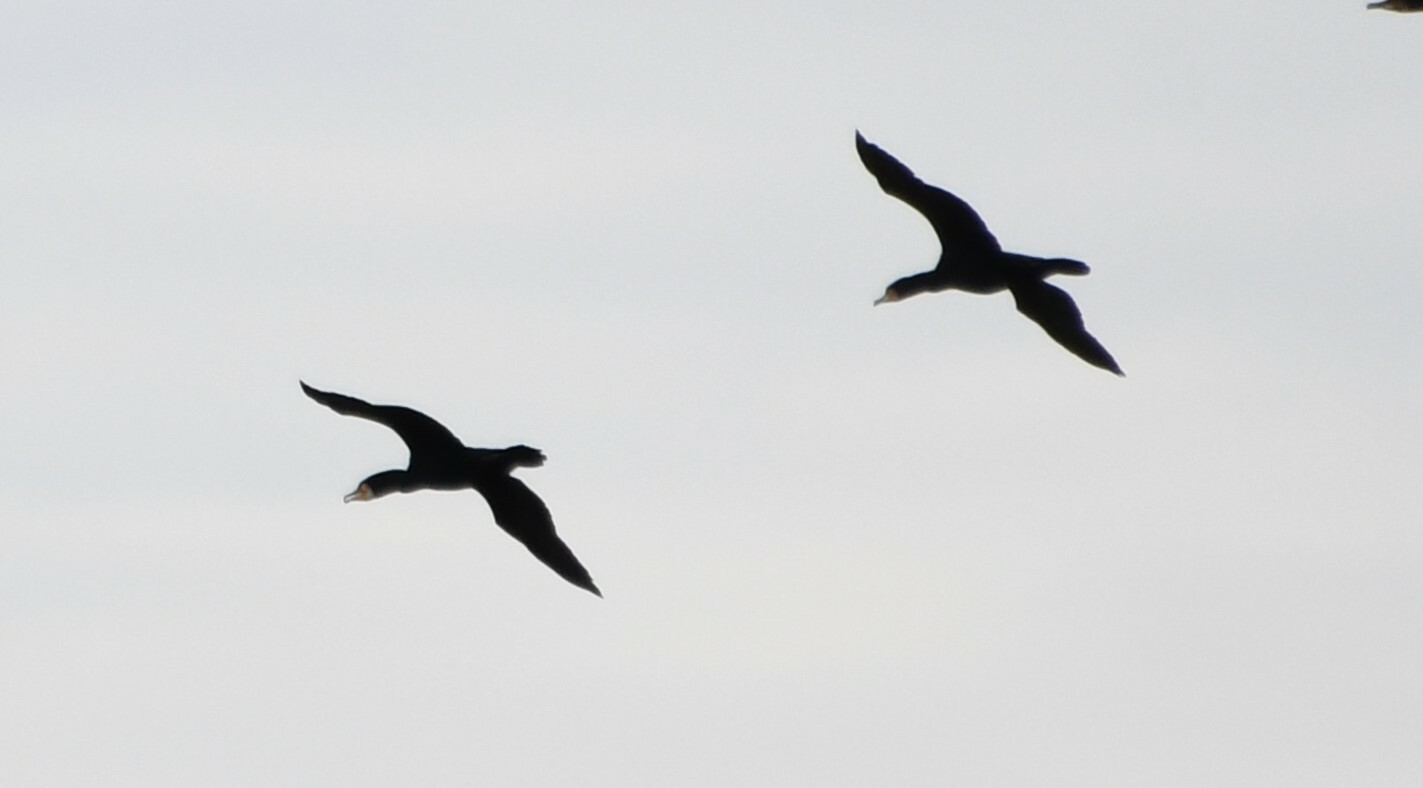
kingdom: Animalia
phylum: Chordata
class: Aves
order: Suliformes
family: Phalacrocoracidae
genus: Phalacrocorax
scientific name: Phalacrocorax carbo
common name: Great cormorant
